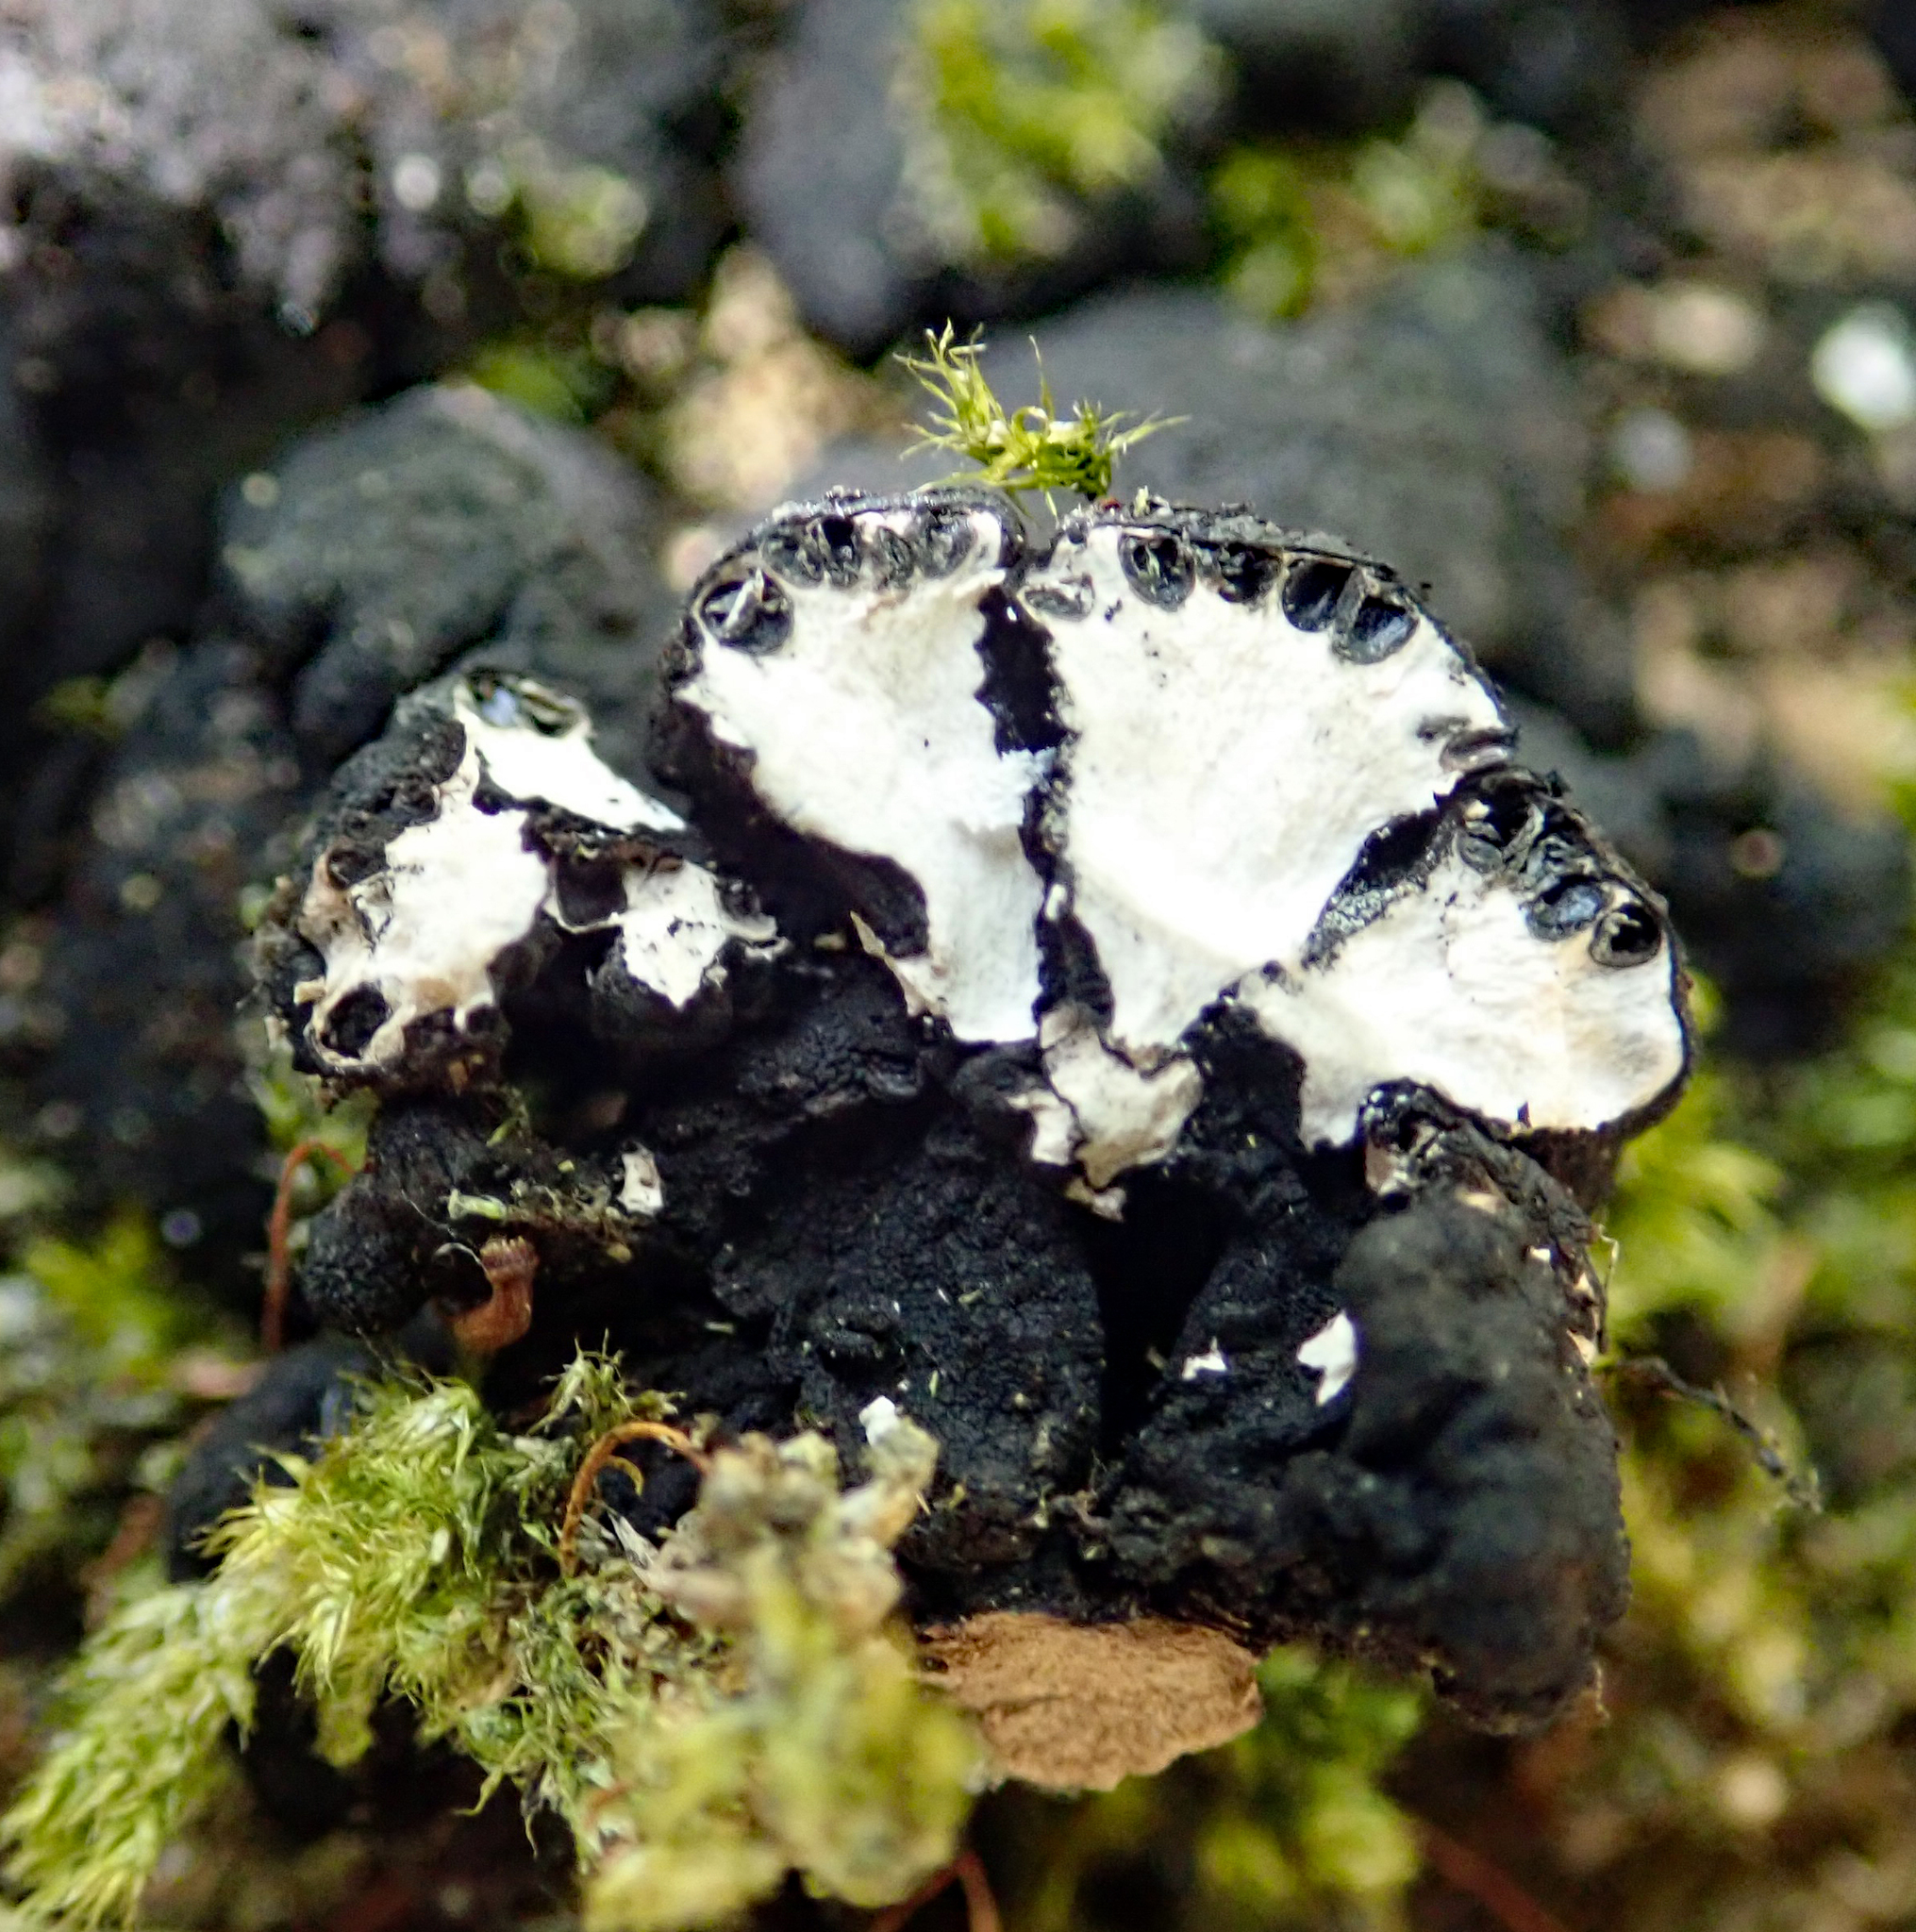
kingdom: Fungi
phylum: Ascomycota
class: Sordariomycetes
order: Xylariales
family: Xylariaceae
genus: Kretzschmaria
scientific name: Kretzschmaria pavimentosa
